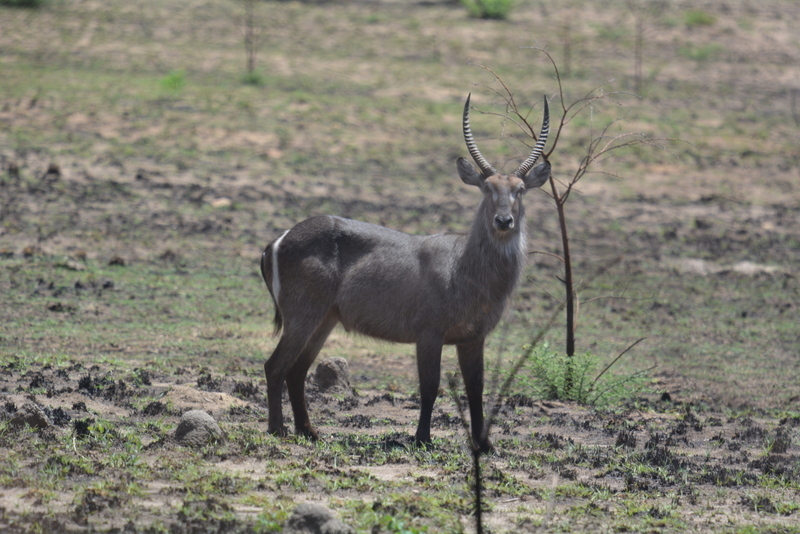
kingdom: Animalia
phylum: Chordata
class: Mammalia
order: Artiodactyla
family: Bovidae
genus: Kobus
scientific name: Kobus ellipsiprymnus
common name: Waterbuck
